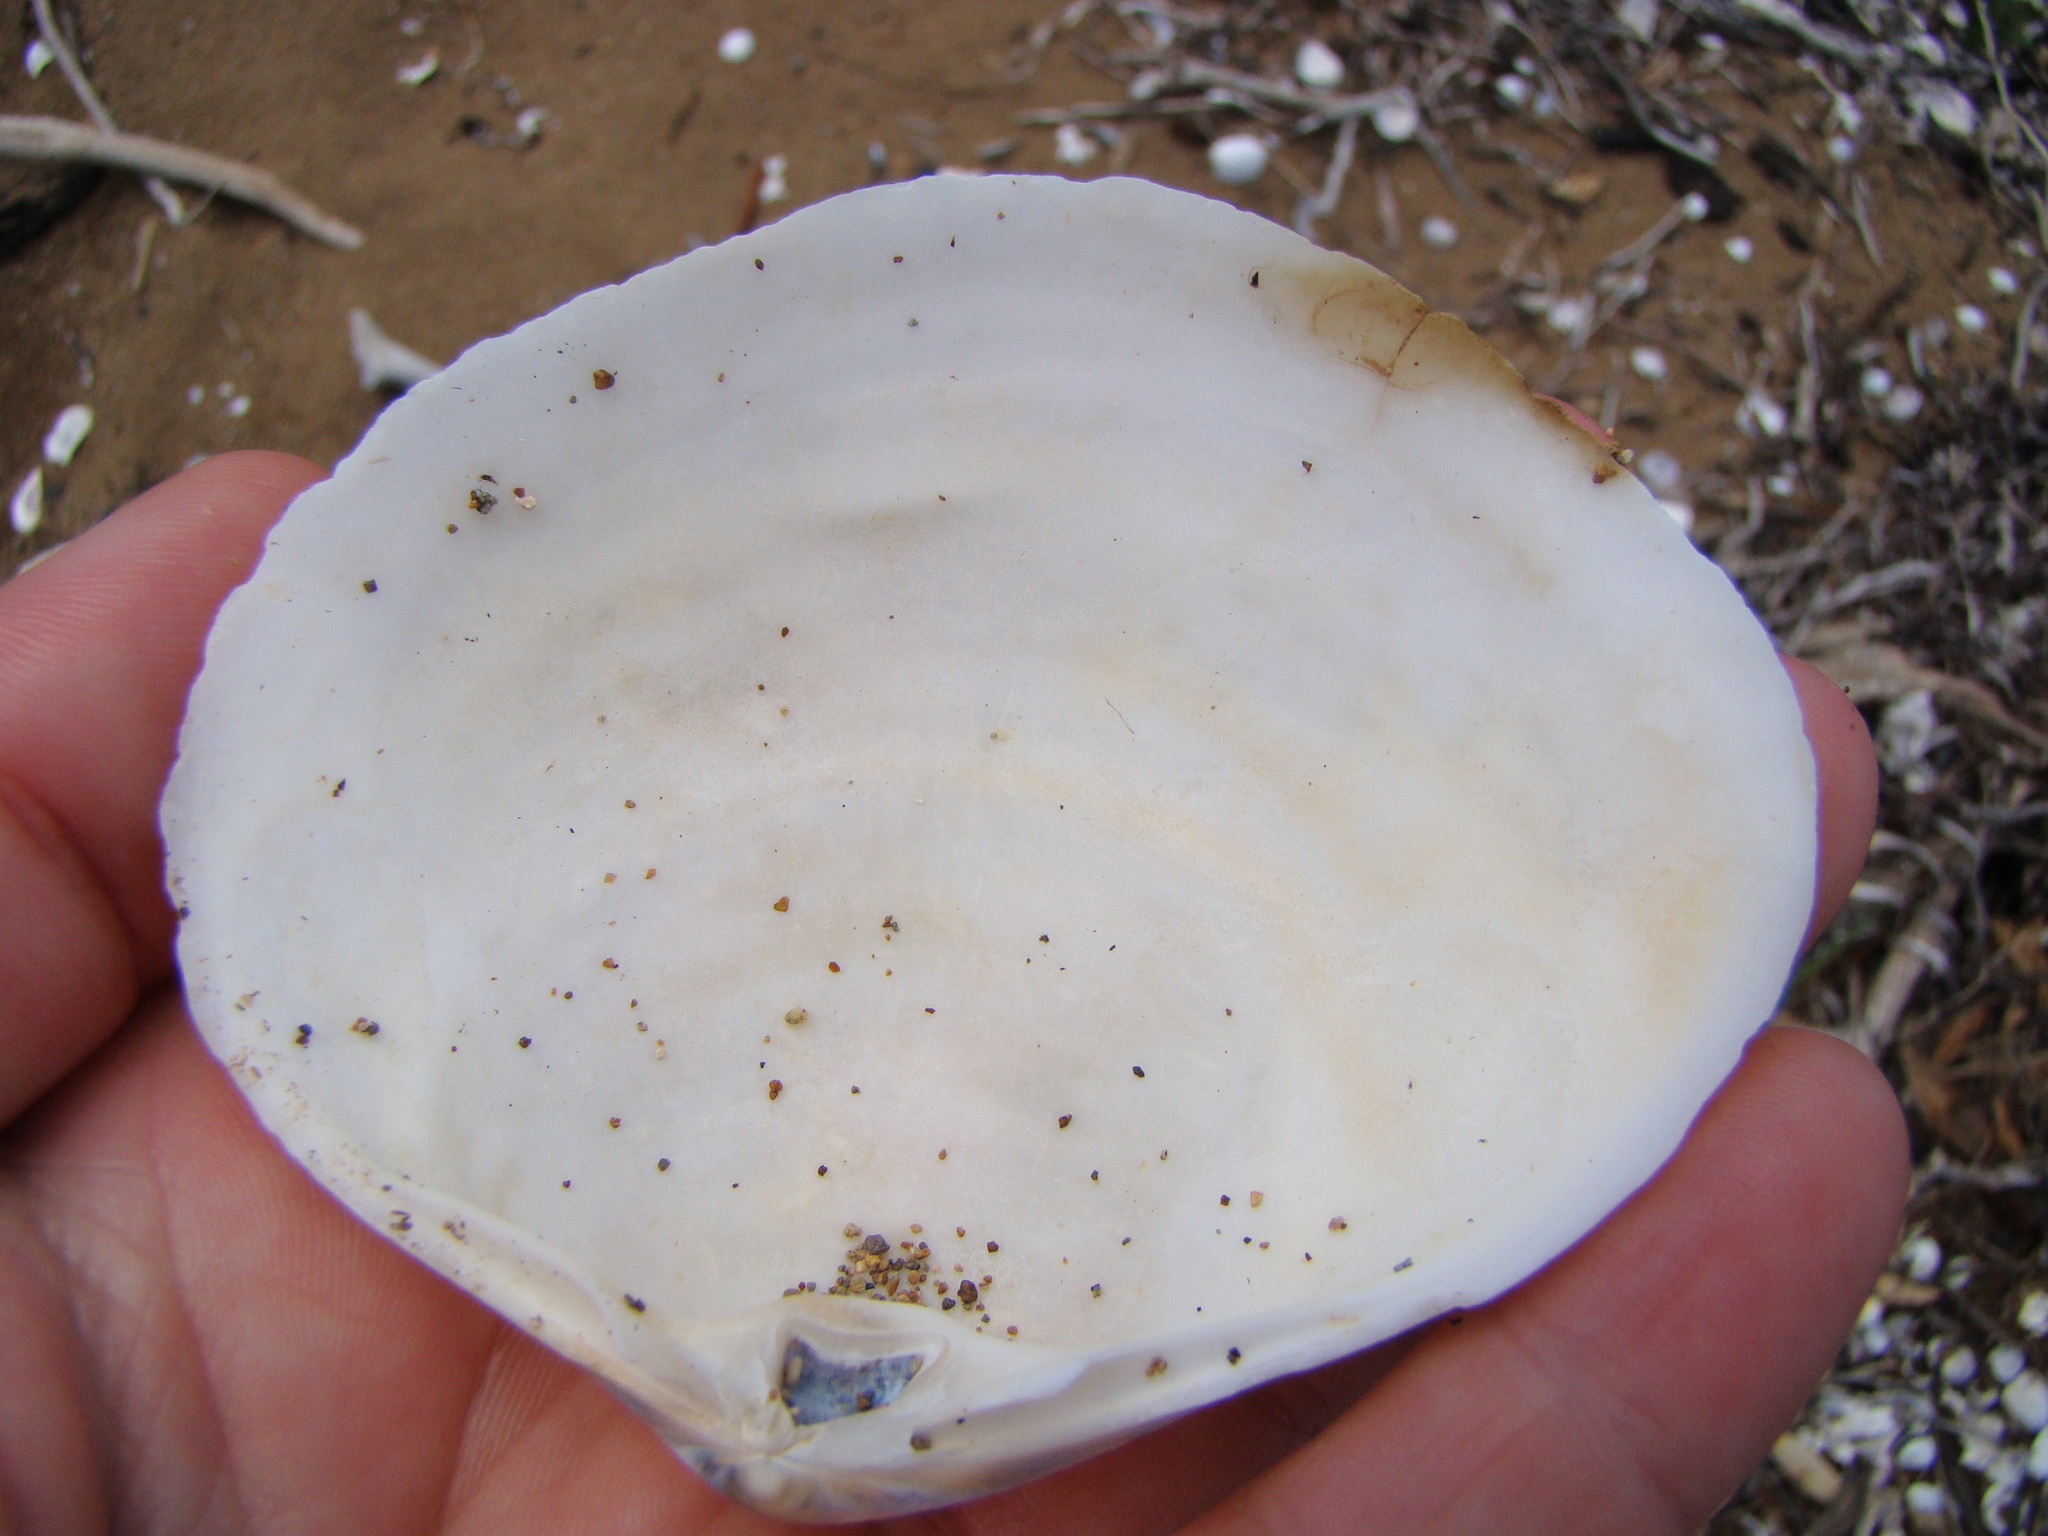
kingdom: Animalia
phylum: Mollusca
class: Bivalvia
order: Venerida
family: Mactridae
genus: Cyclomactra
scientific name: Cyclomactra ovata
